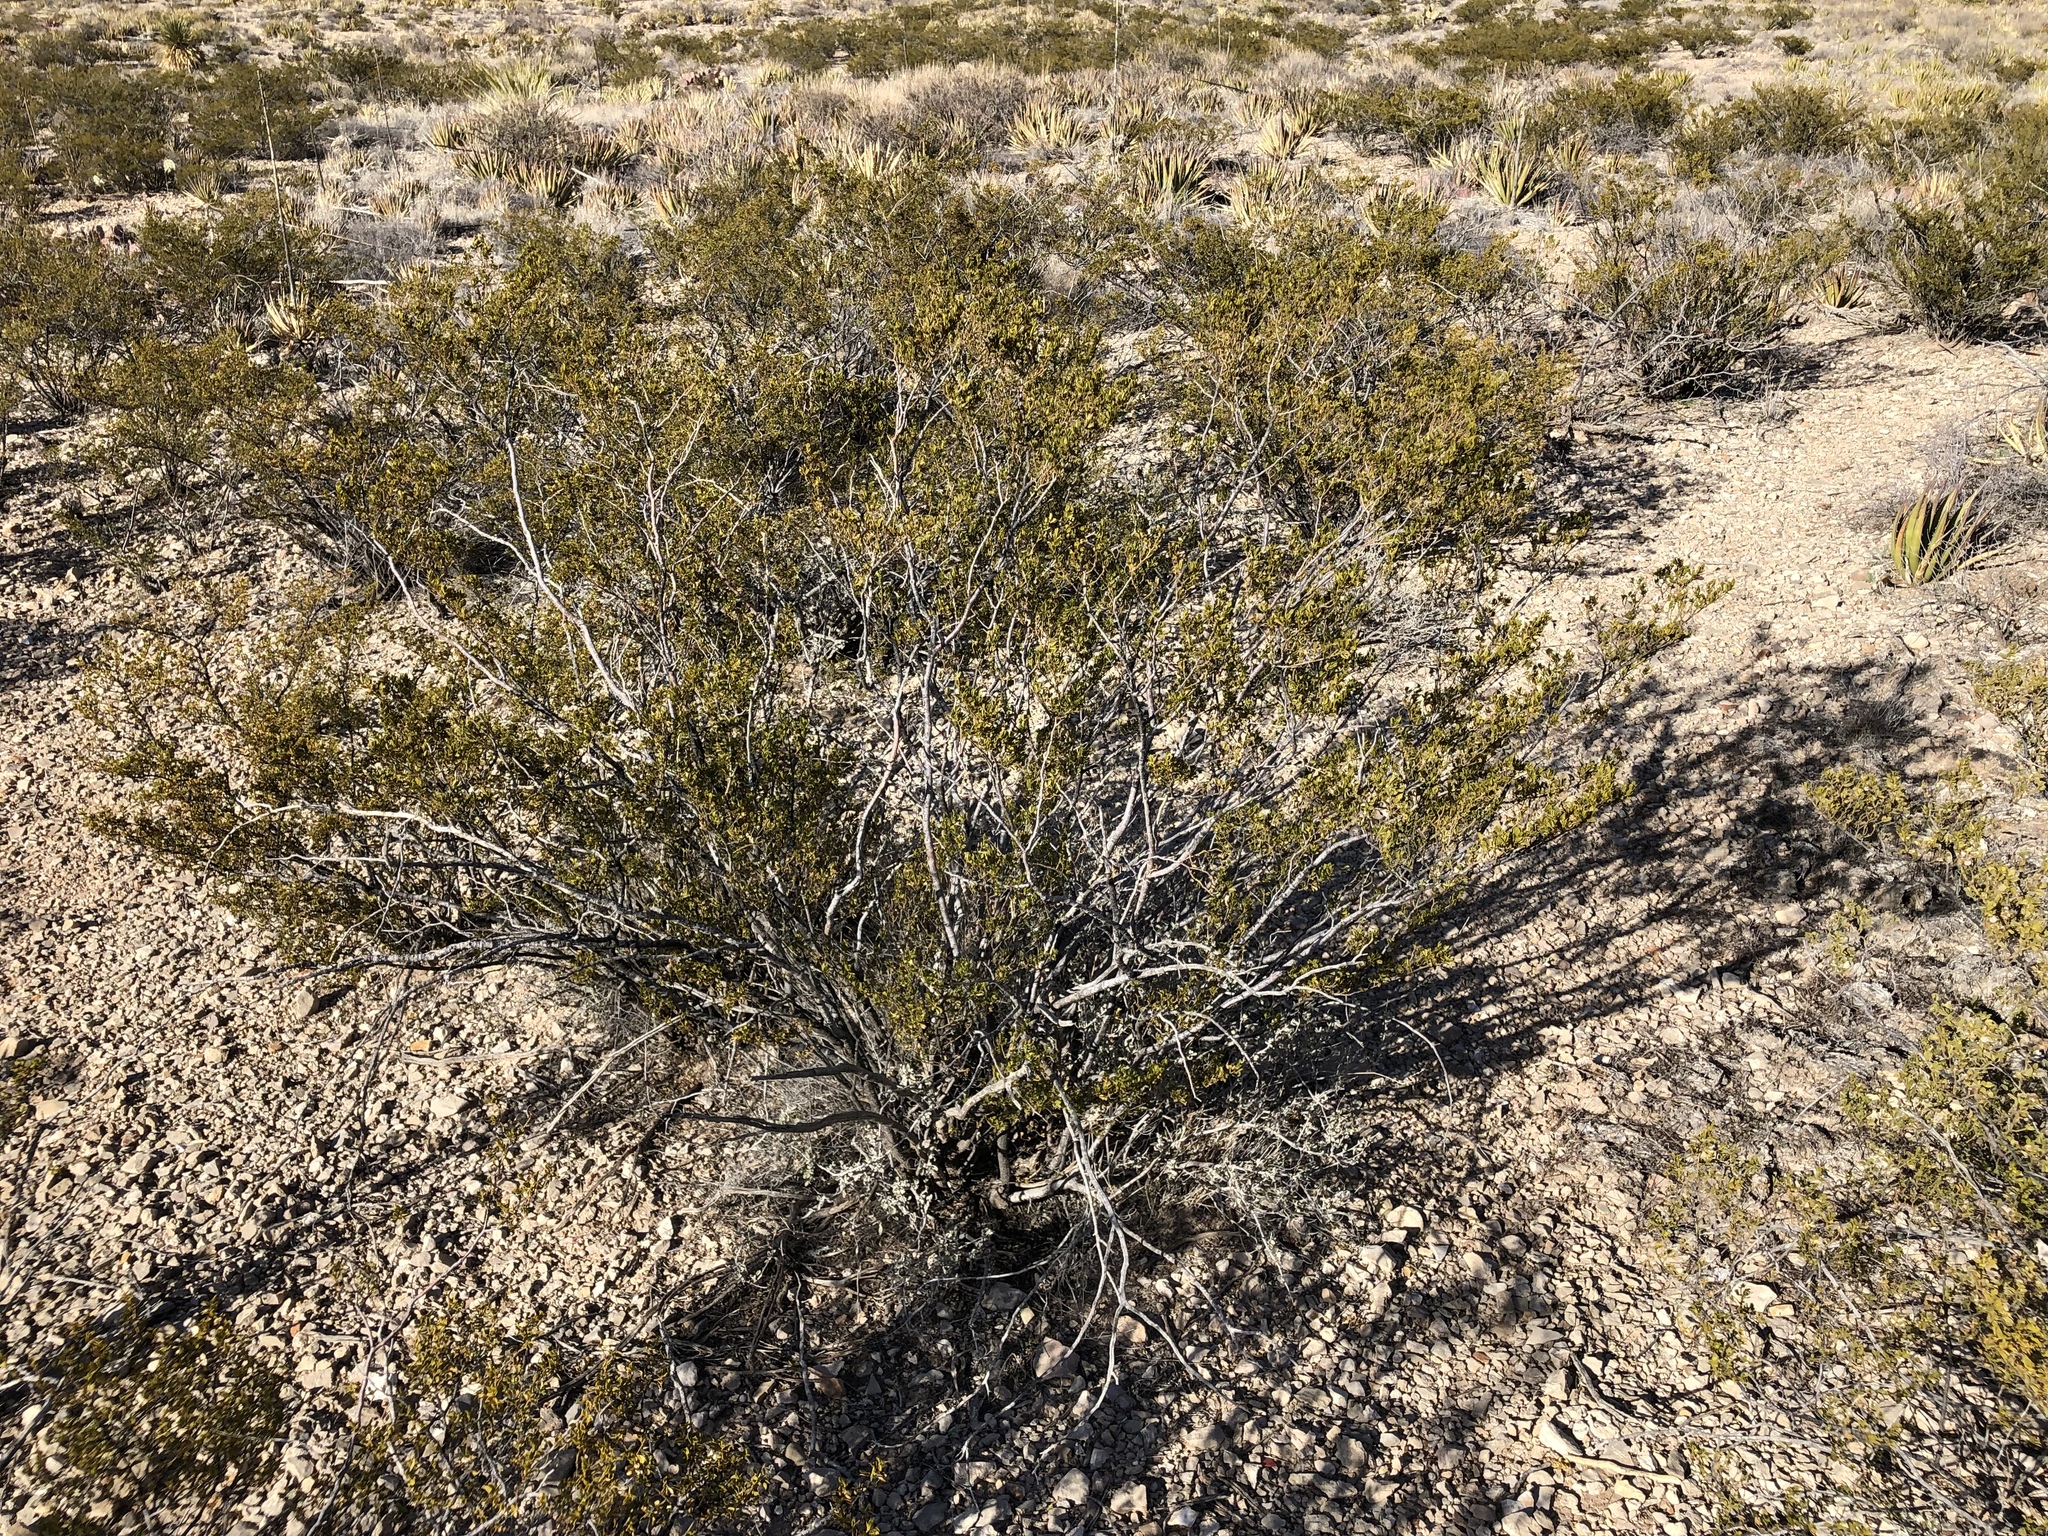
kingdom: Plantae
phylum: Tracheophyta
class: Magnoliopsida
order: Zygophyllales
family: Zygophyllaceae
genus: Larrea
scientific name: Larrea tridentata
